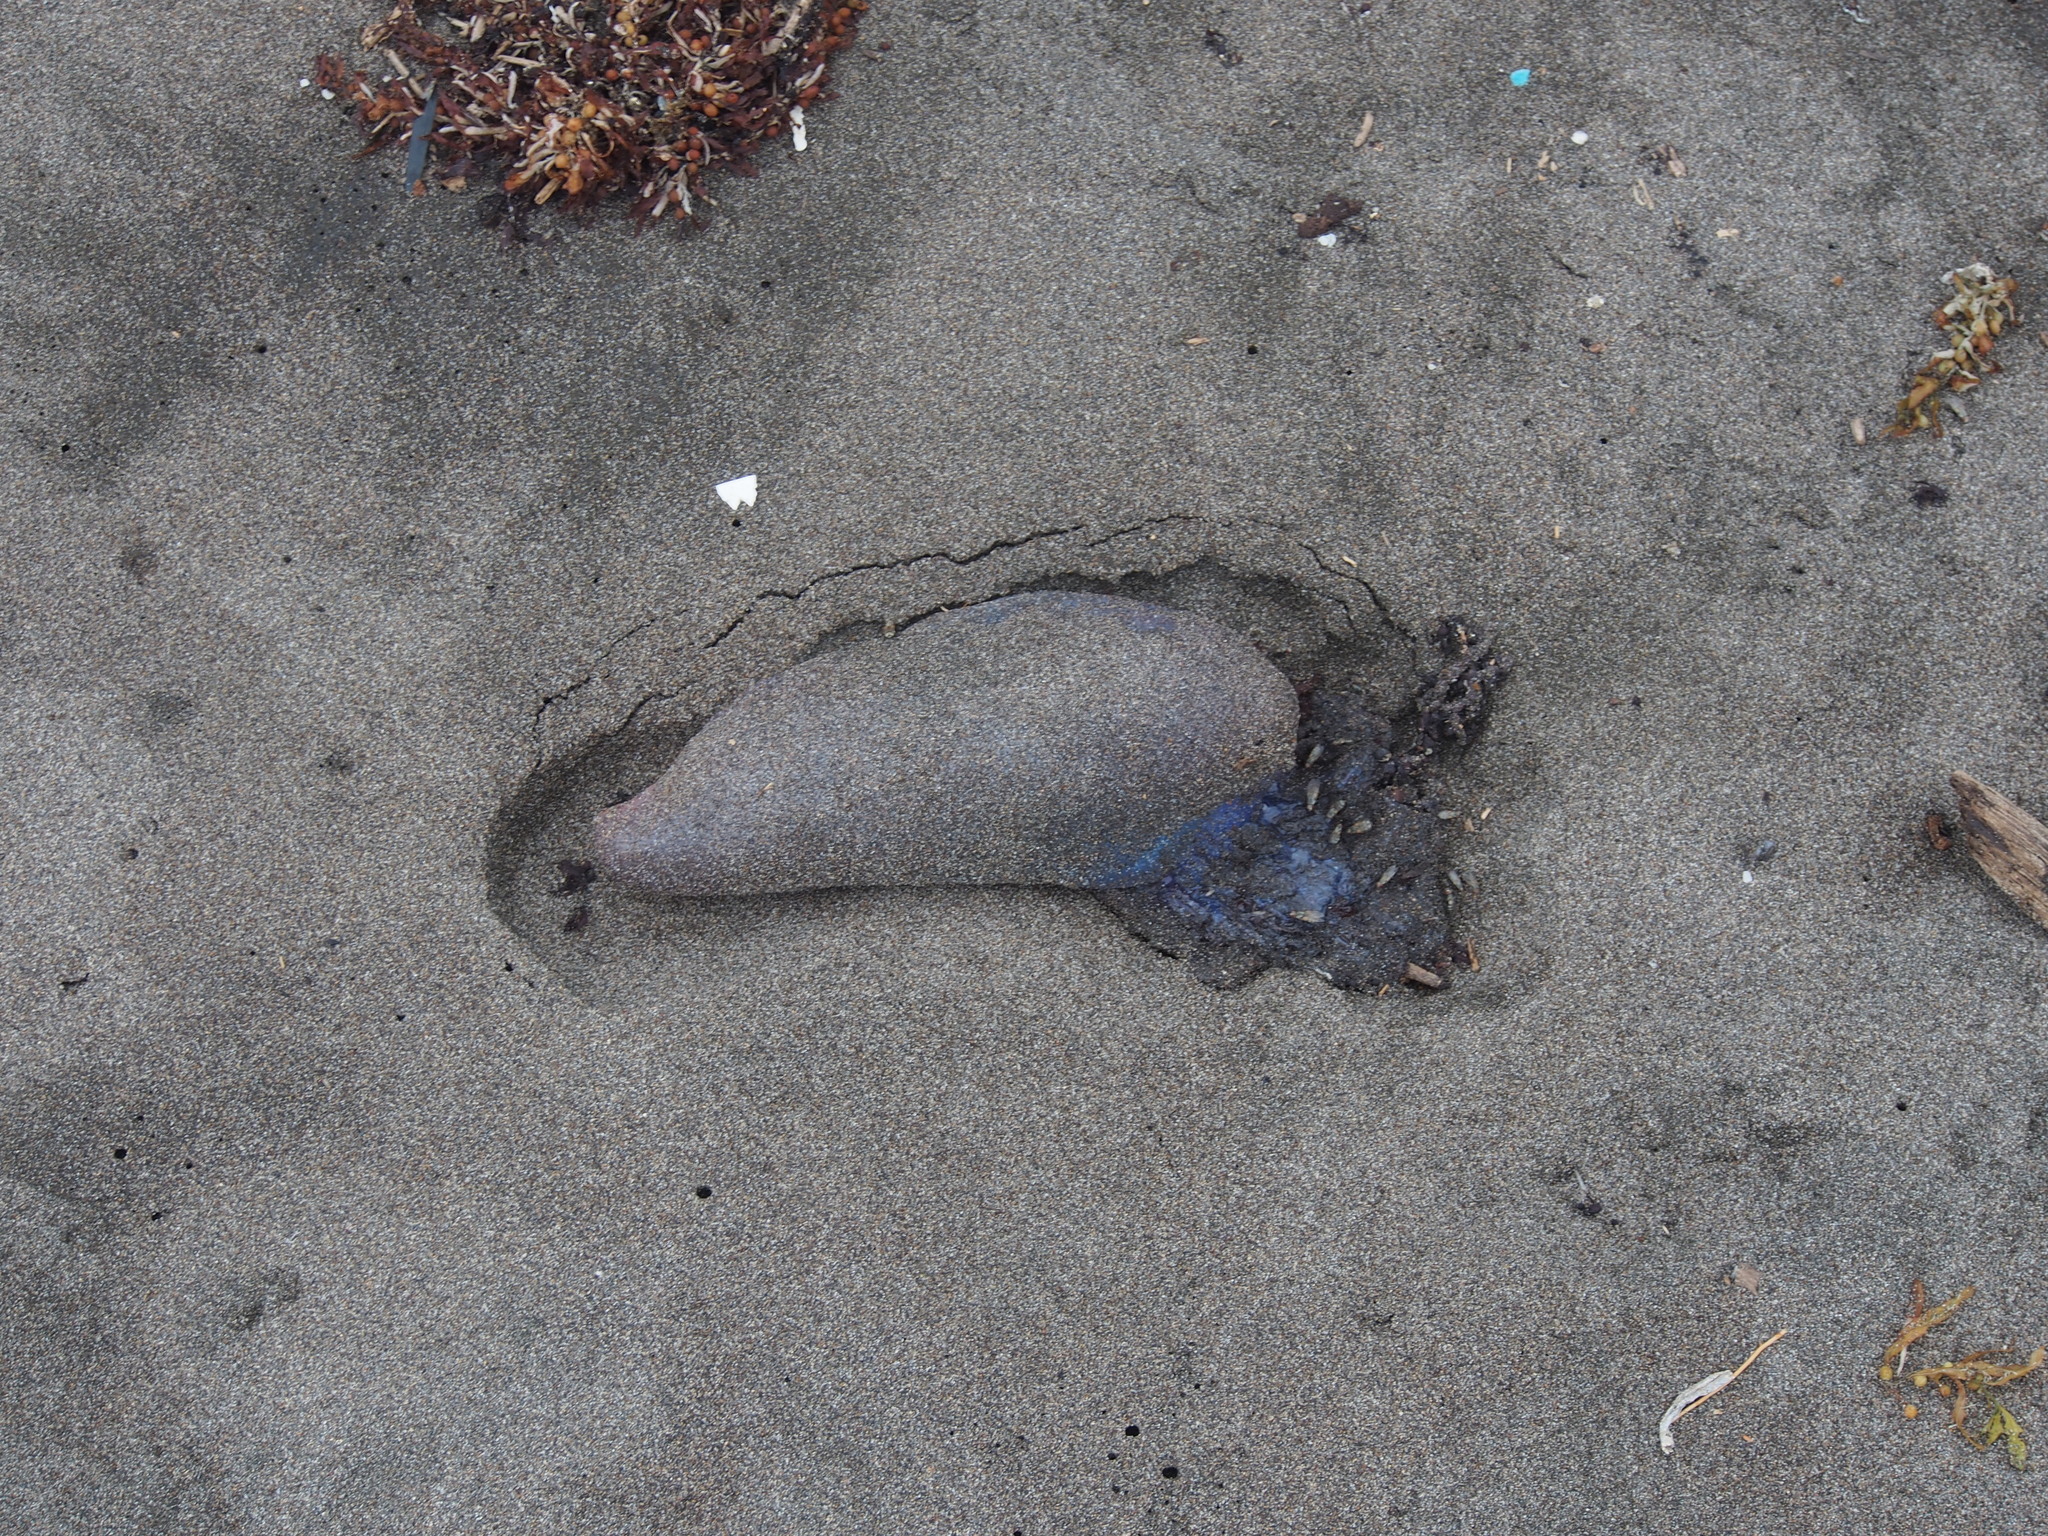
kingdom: Animalia
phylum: Cnidaria
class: Hydrozoa
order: Siphonophorae
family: Physaliidae
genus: Physalia
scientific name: Physalia physalis
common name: Portuguese man-of-war
